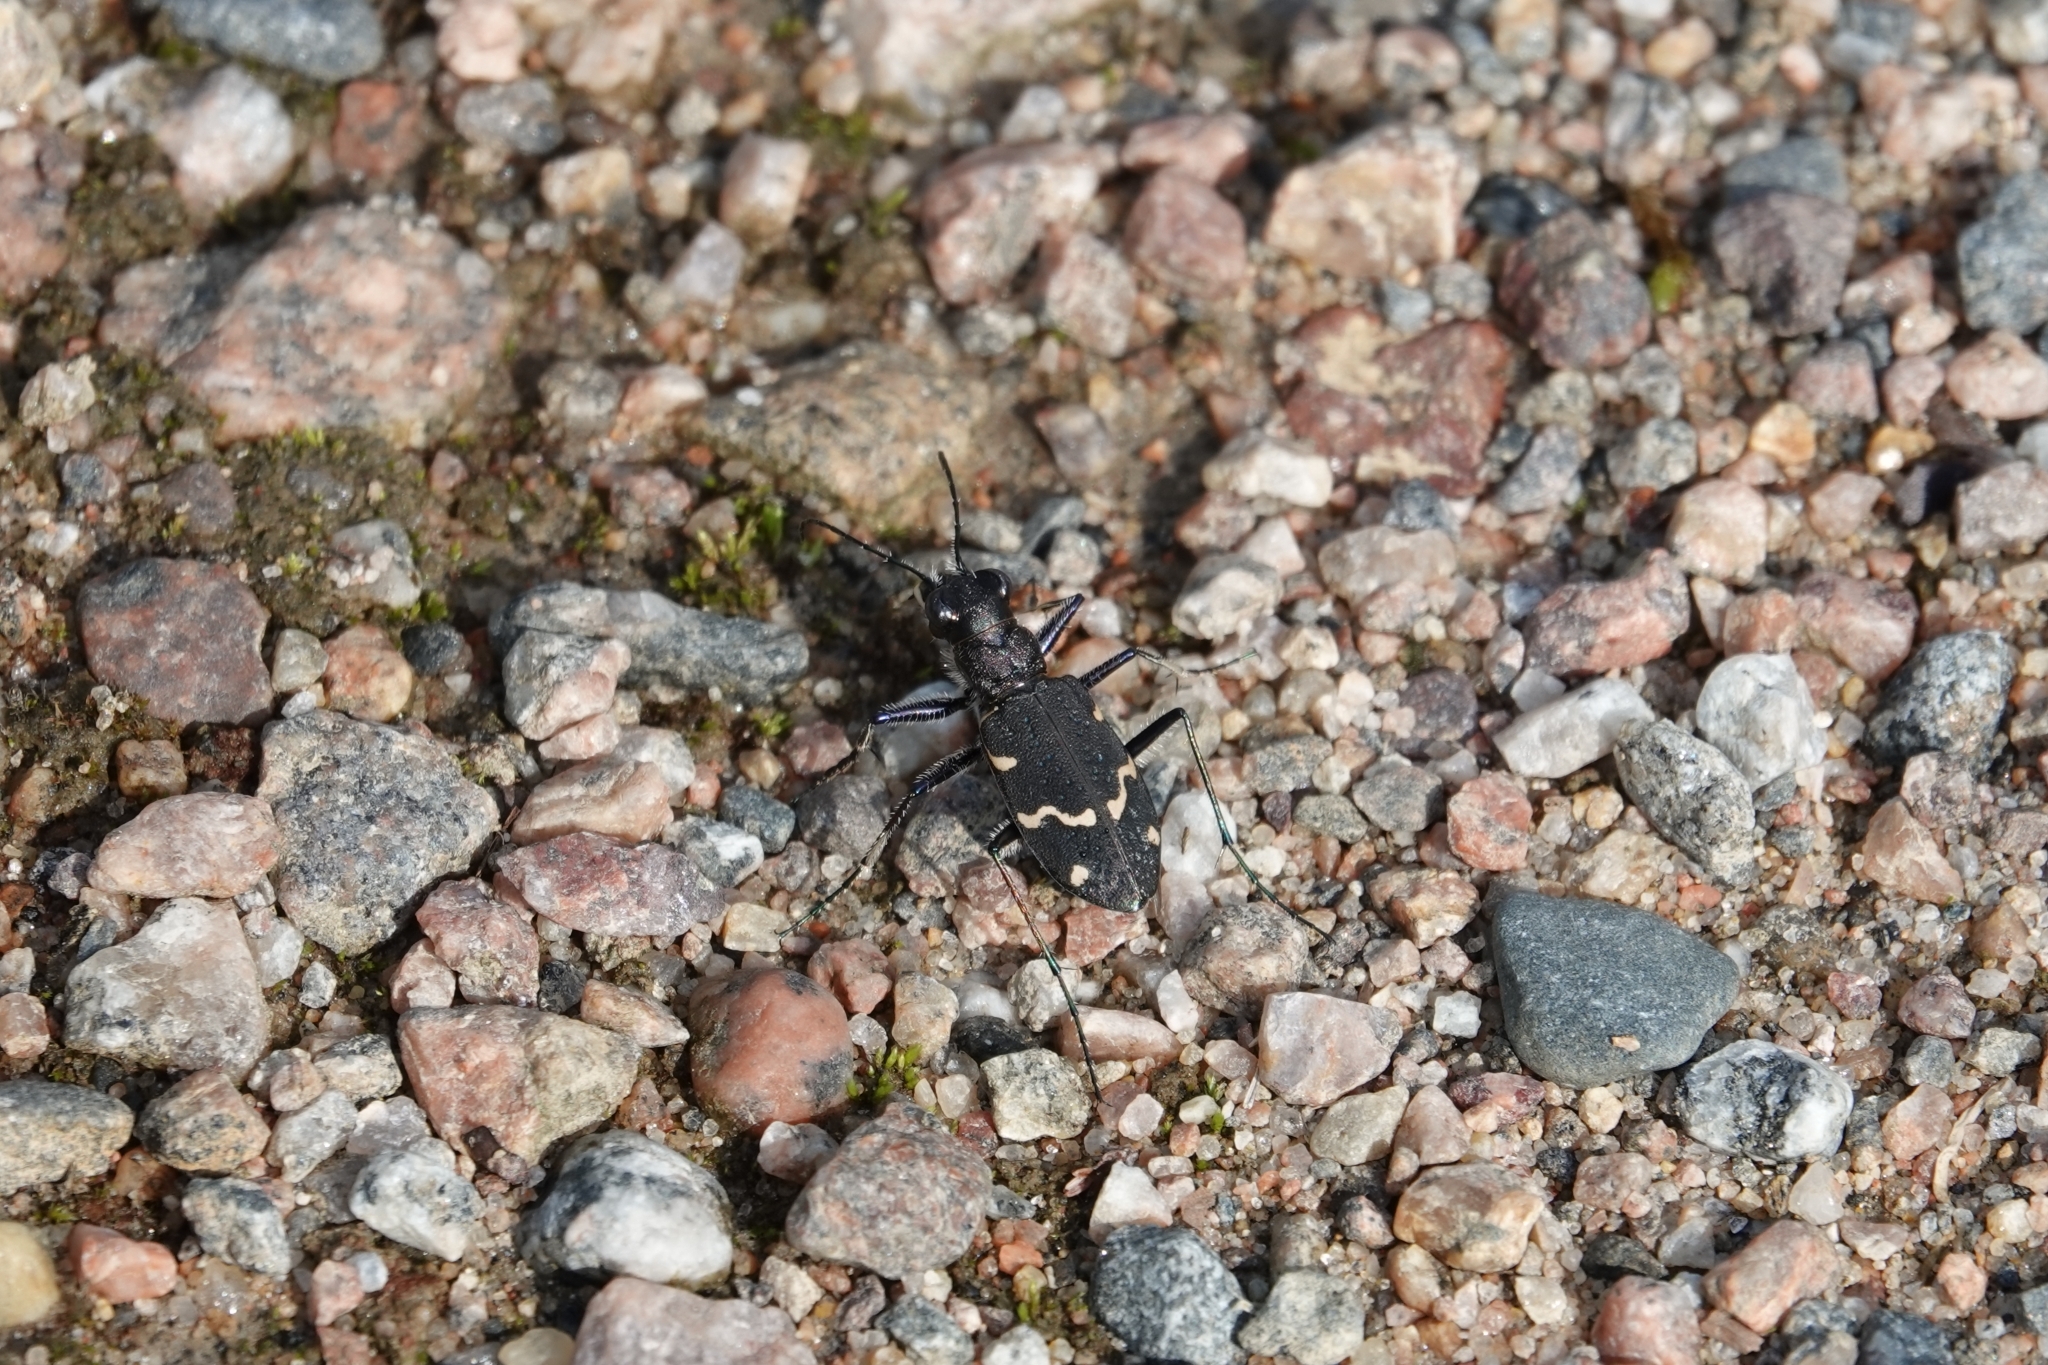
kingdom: Animalia
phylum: Arthropoda
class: Insecta
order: Coleoptera
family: Carabidae
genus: Cicindela
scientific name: Cicindela sylvatica
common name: Heath tiger beetle
